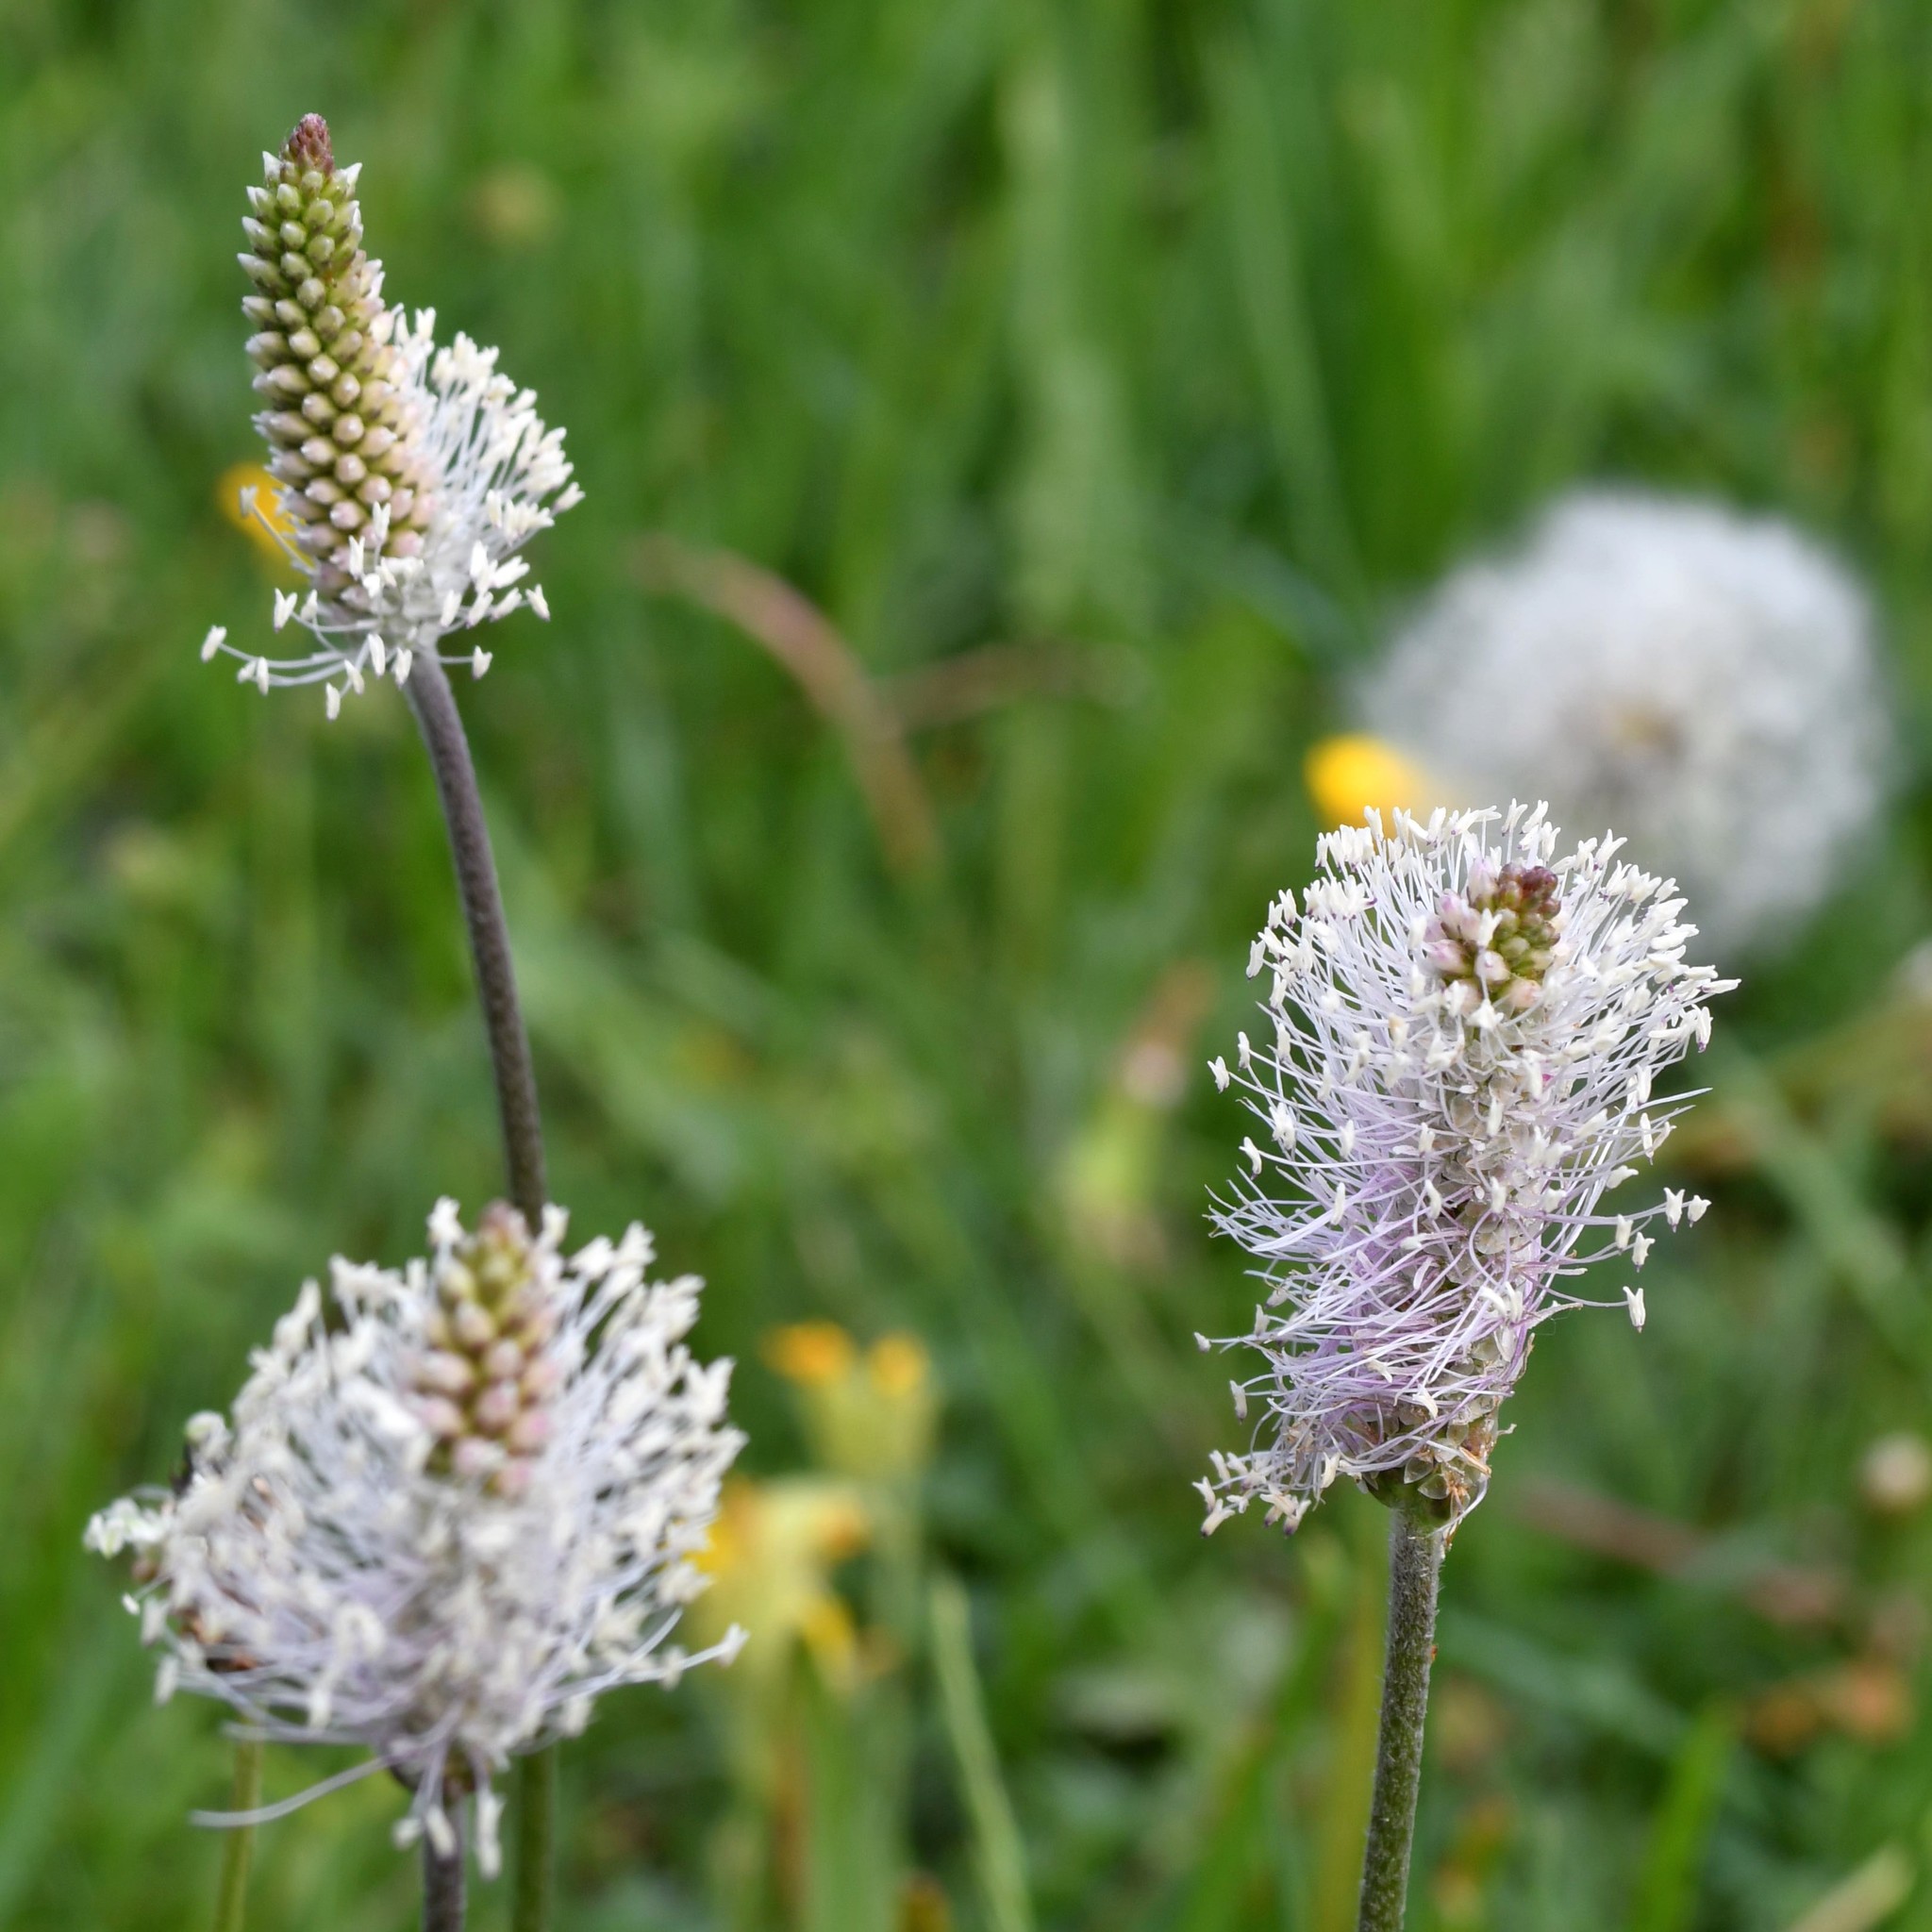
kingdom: Plantae
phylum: Tracheophyta
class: Magnoliopsida
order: Lamiales
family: Plantaginaceae
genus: Plantago
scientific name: Plantago media
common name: Hoary plantain
